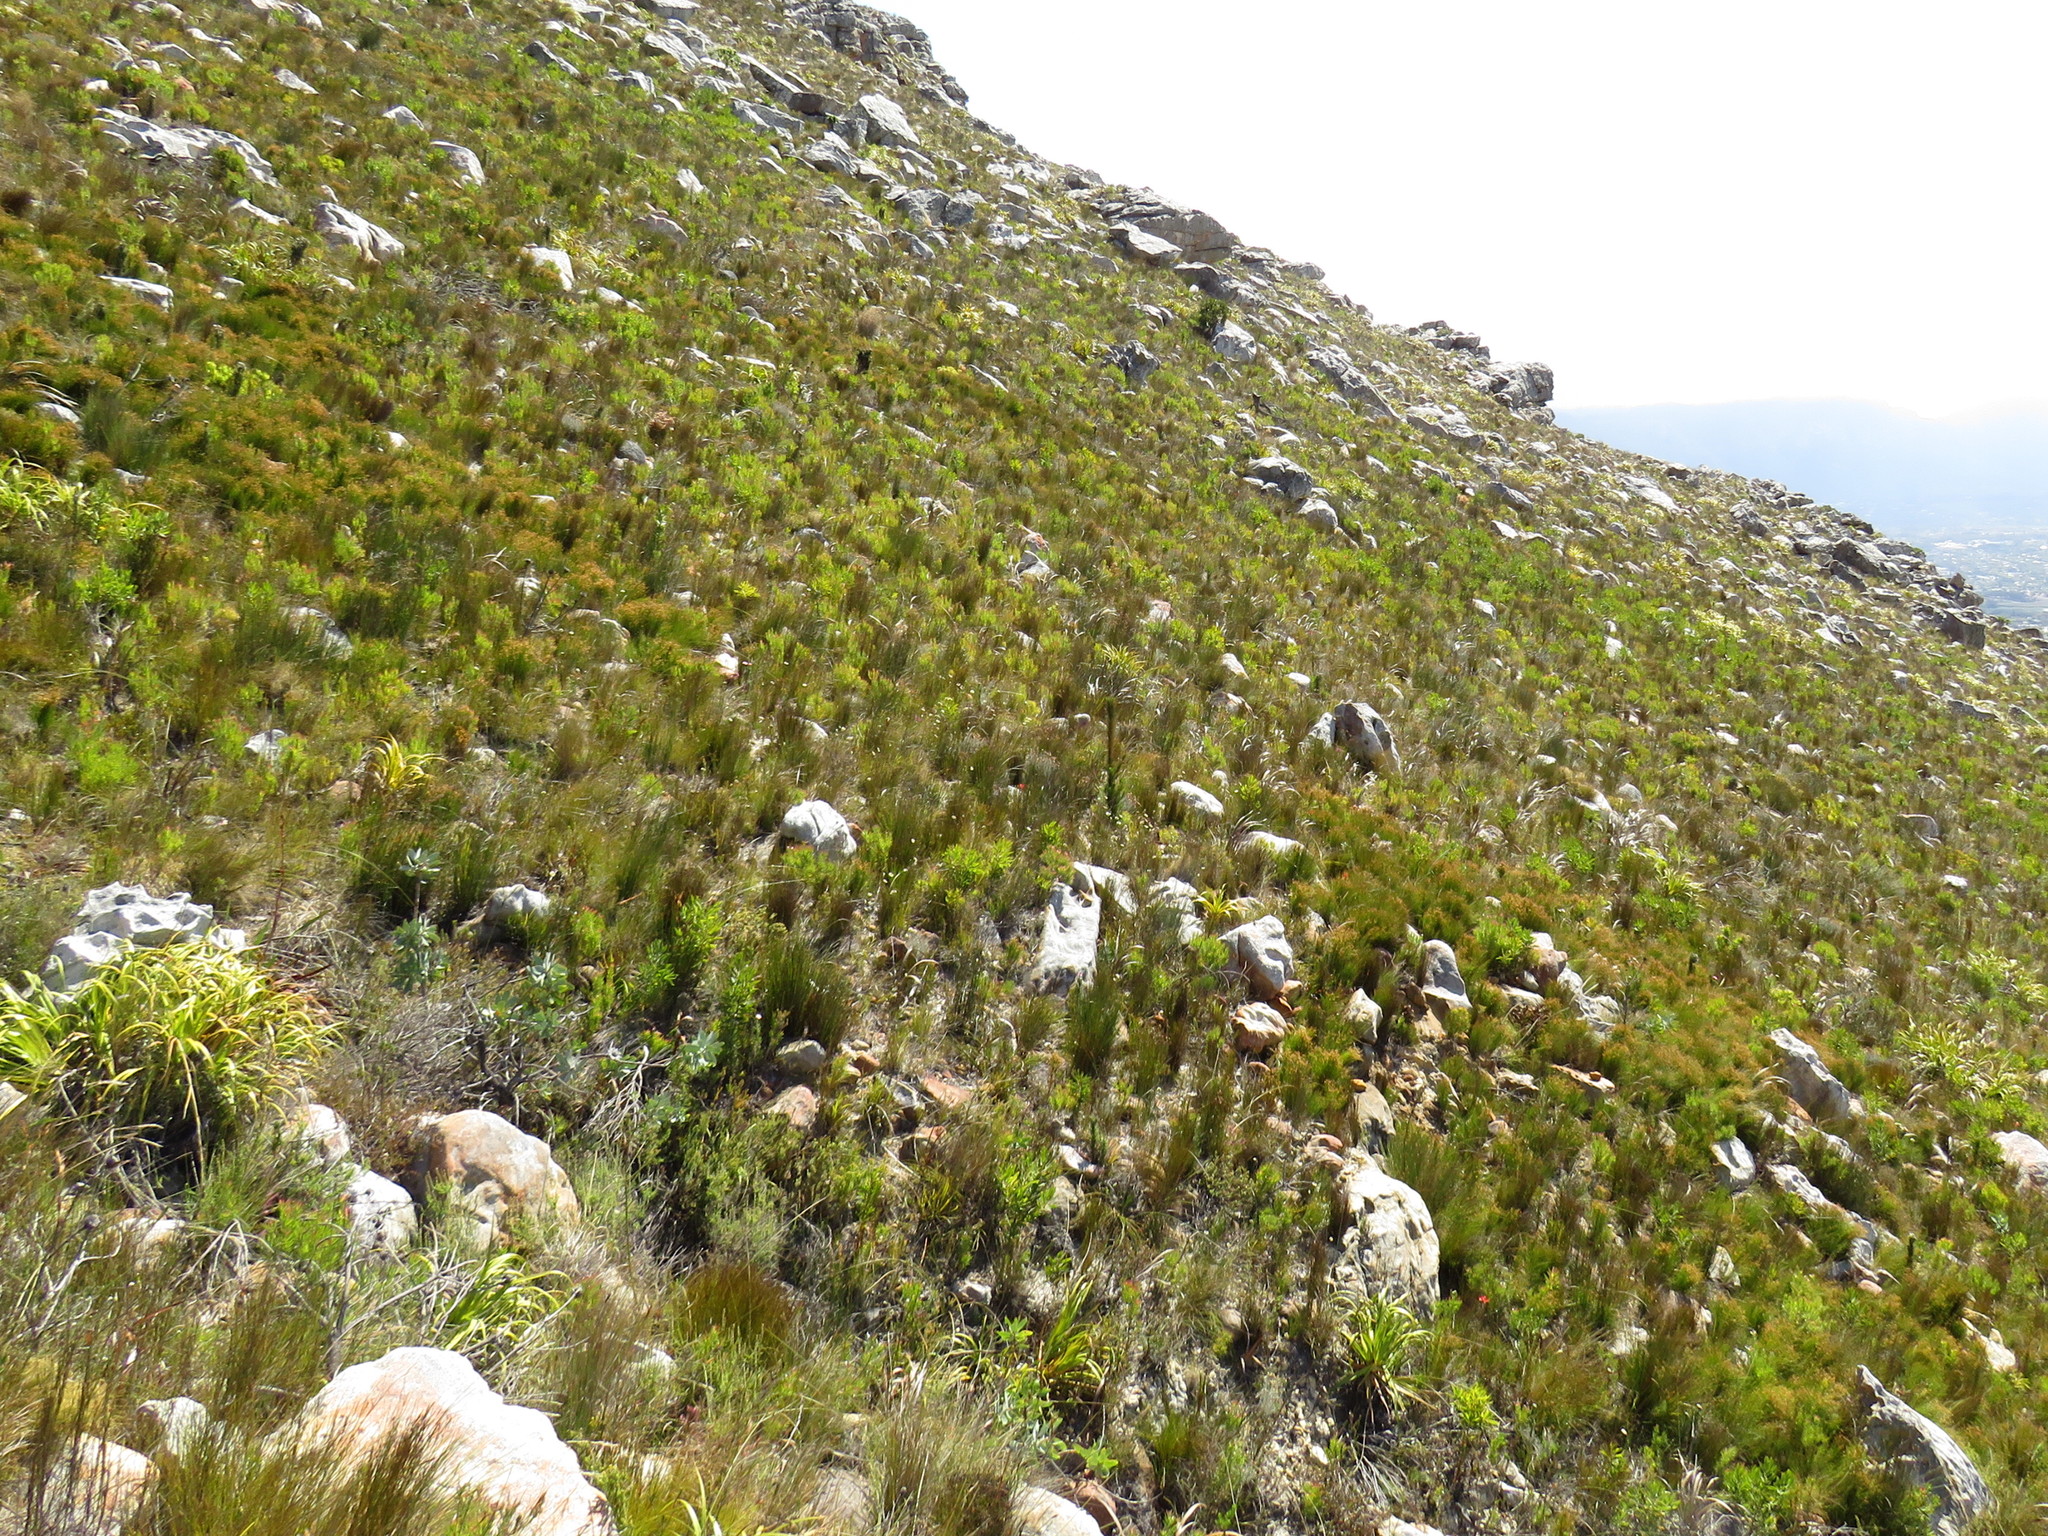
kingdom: Plantae
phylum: Tracheophyta
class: Pinopsida
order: Pinales
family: Pinaceae
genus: Pinus
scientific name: Pinus radiata
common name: Monterey pine
